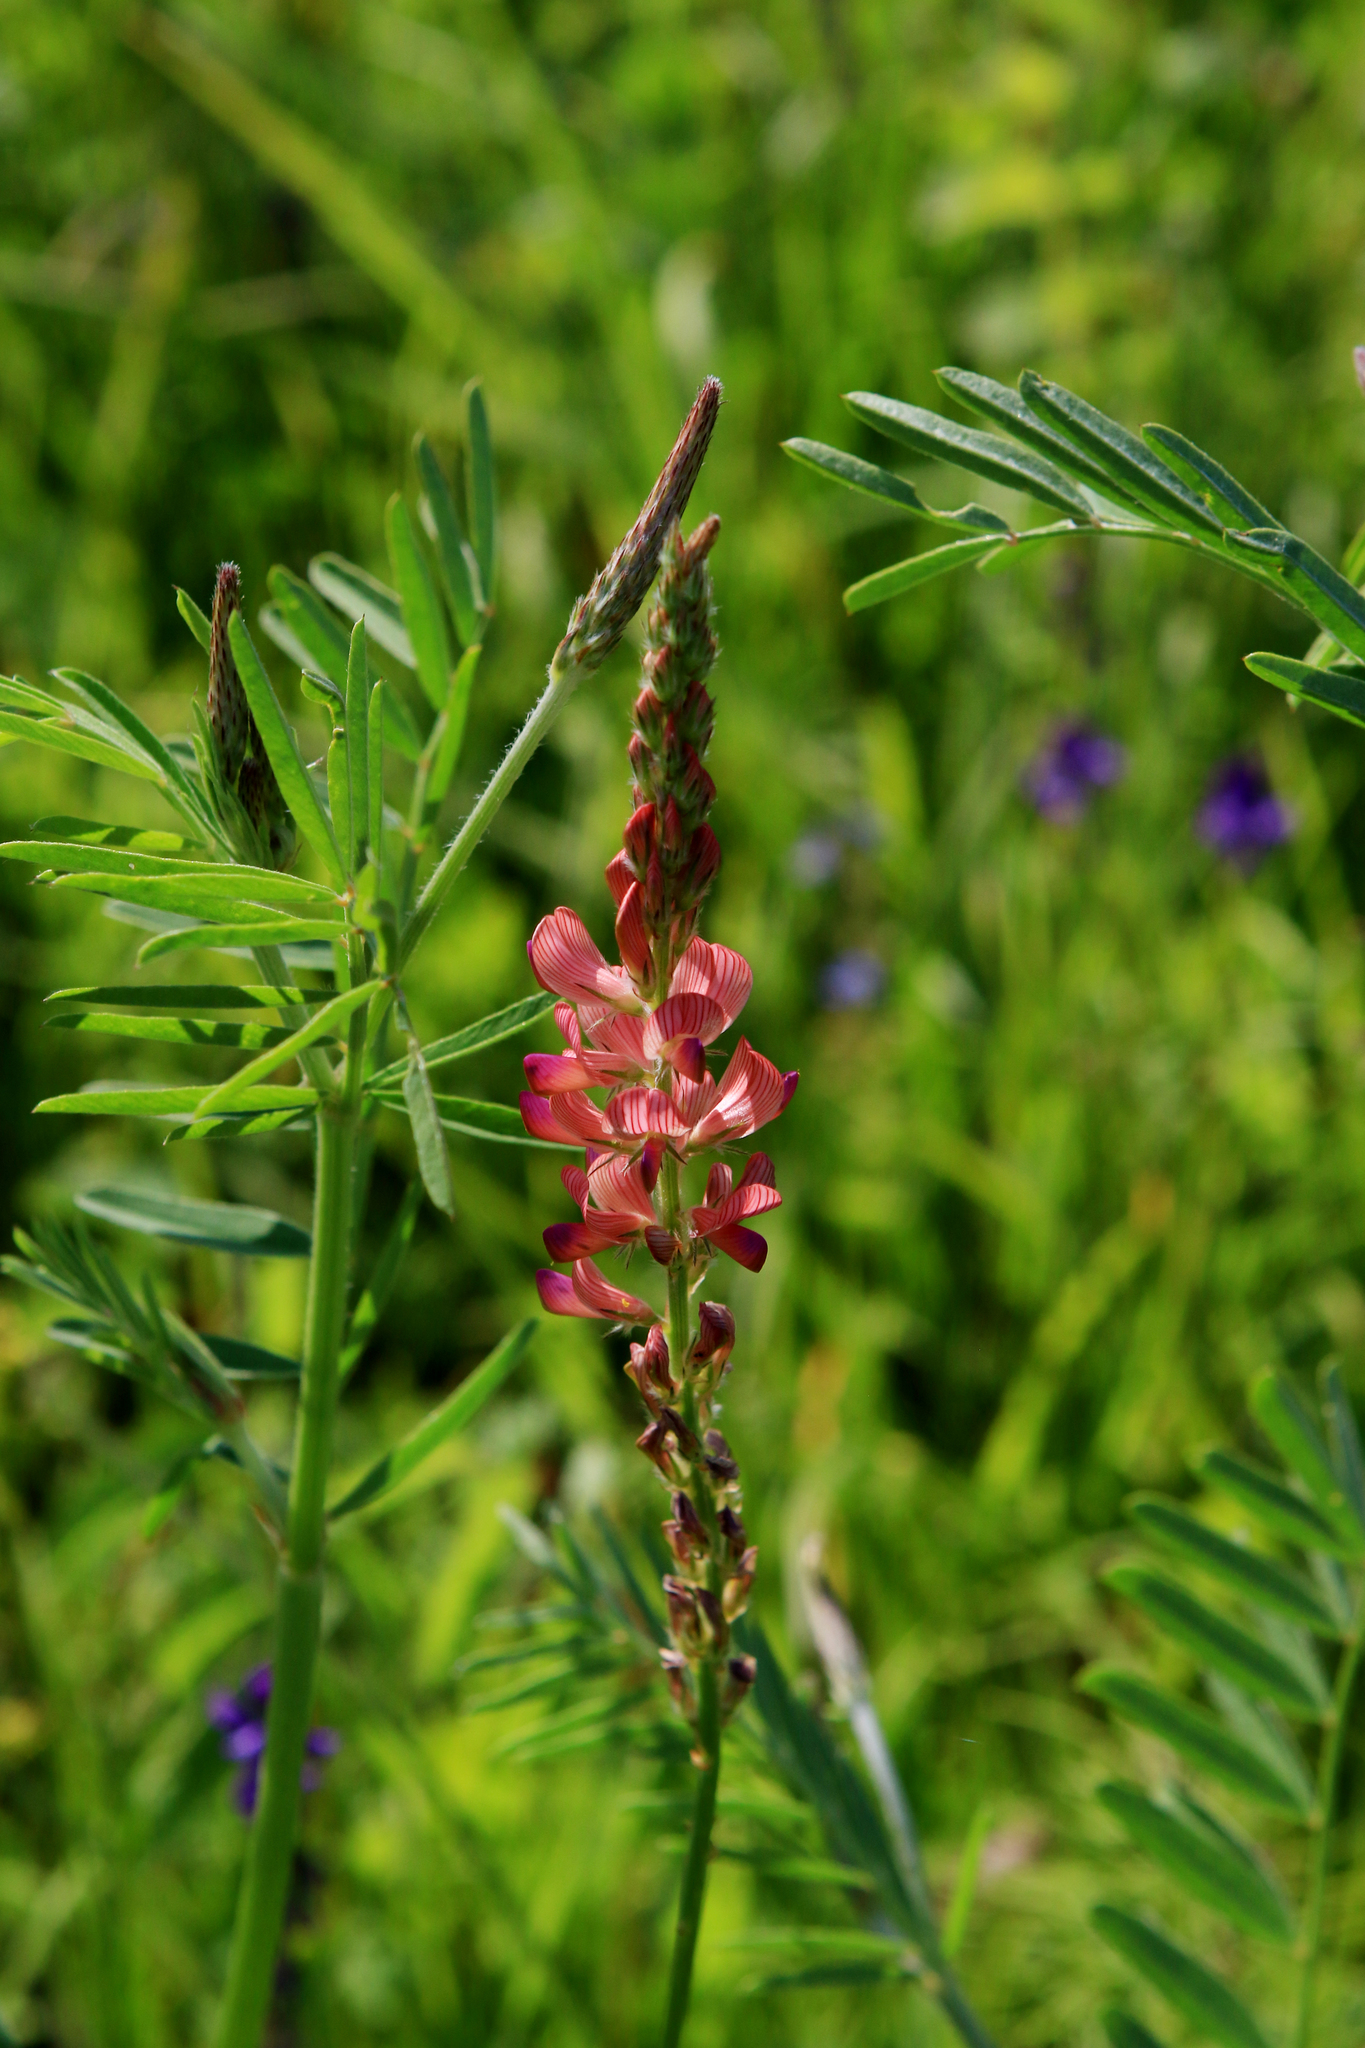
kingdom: Plantae
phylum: Tracheophyta
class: Magnoliopsida
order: Fabales
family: Fabaceae
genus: Onobrychis
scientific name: Onobrychis arenaria
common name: Sand esparcet
